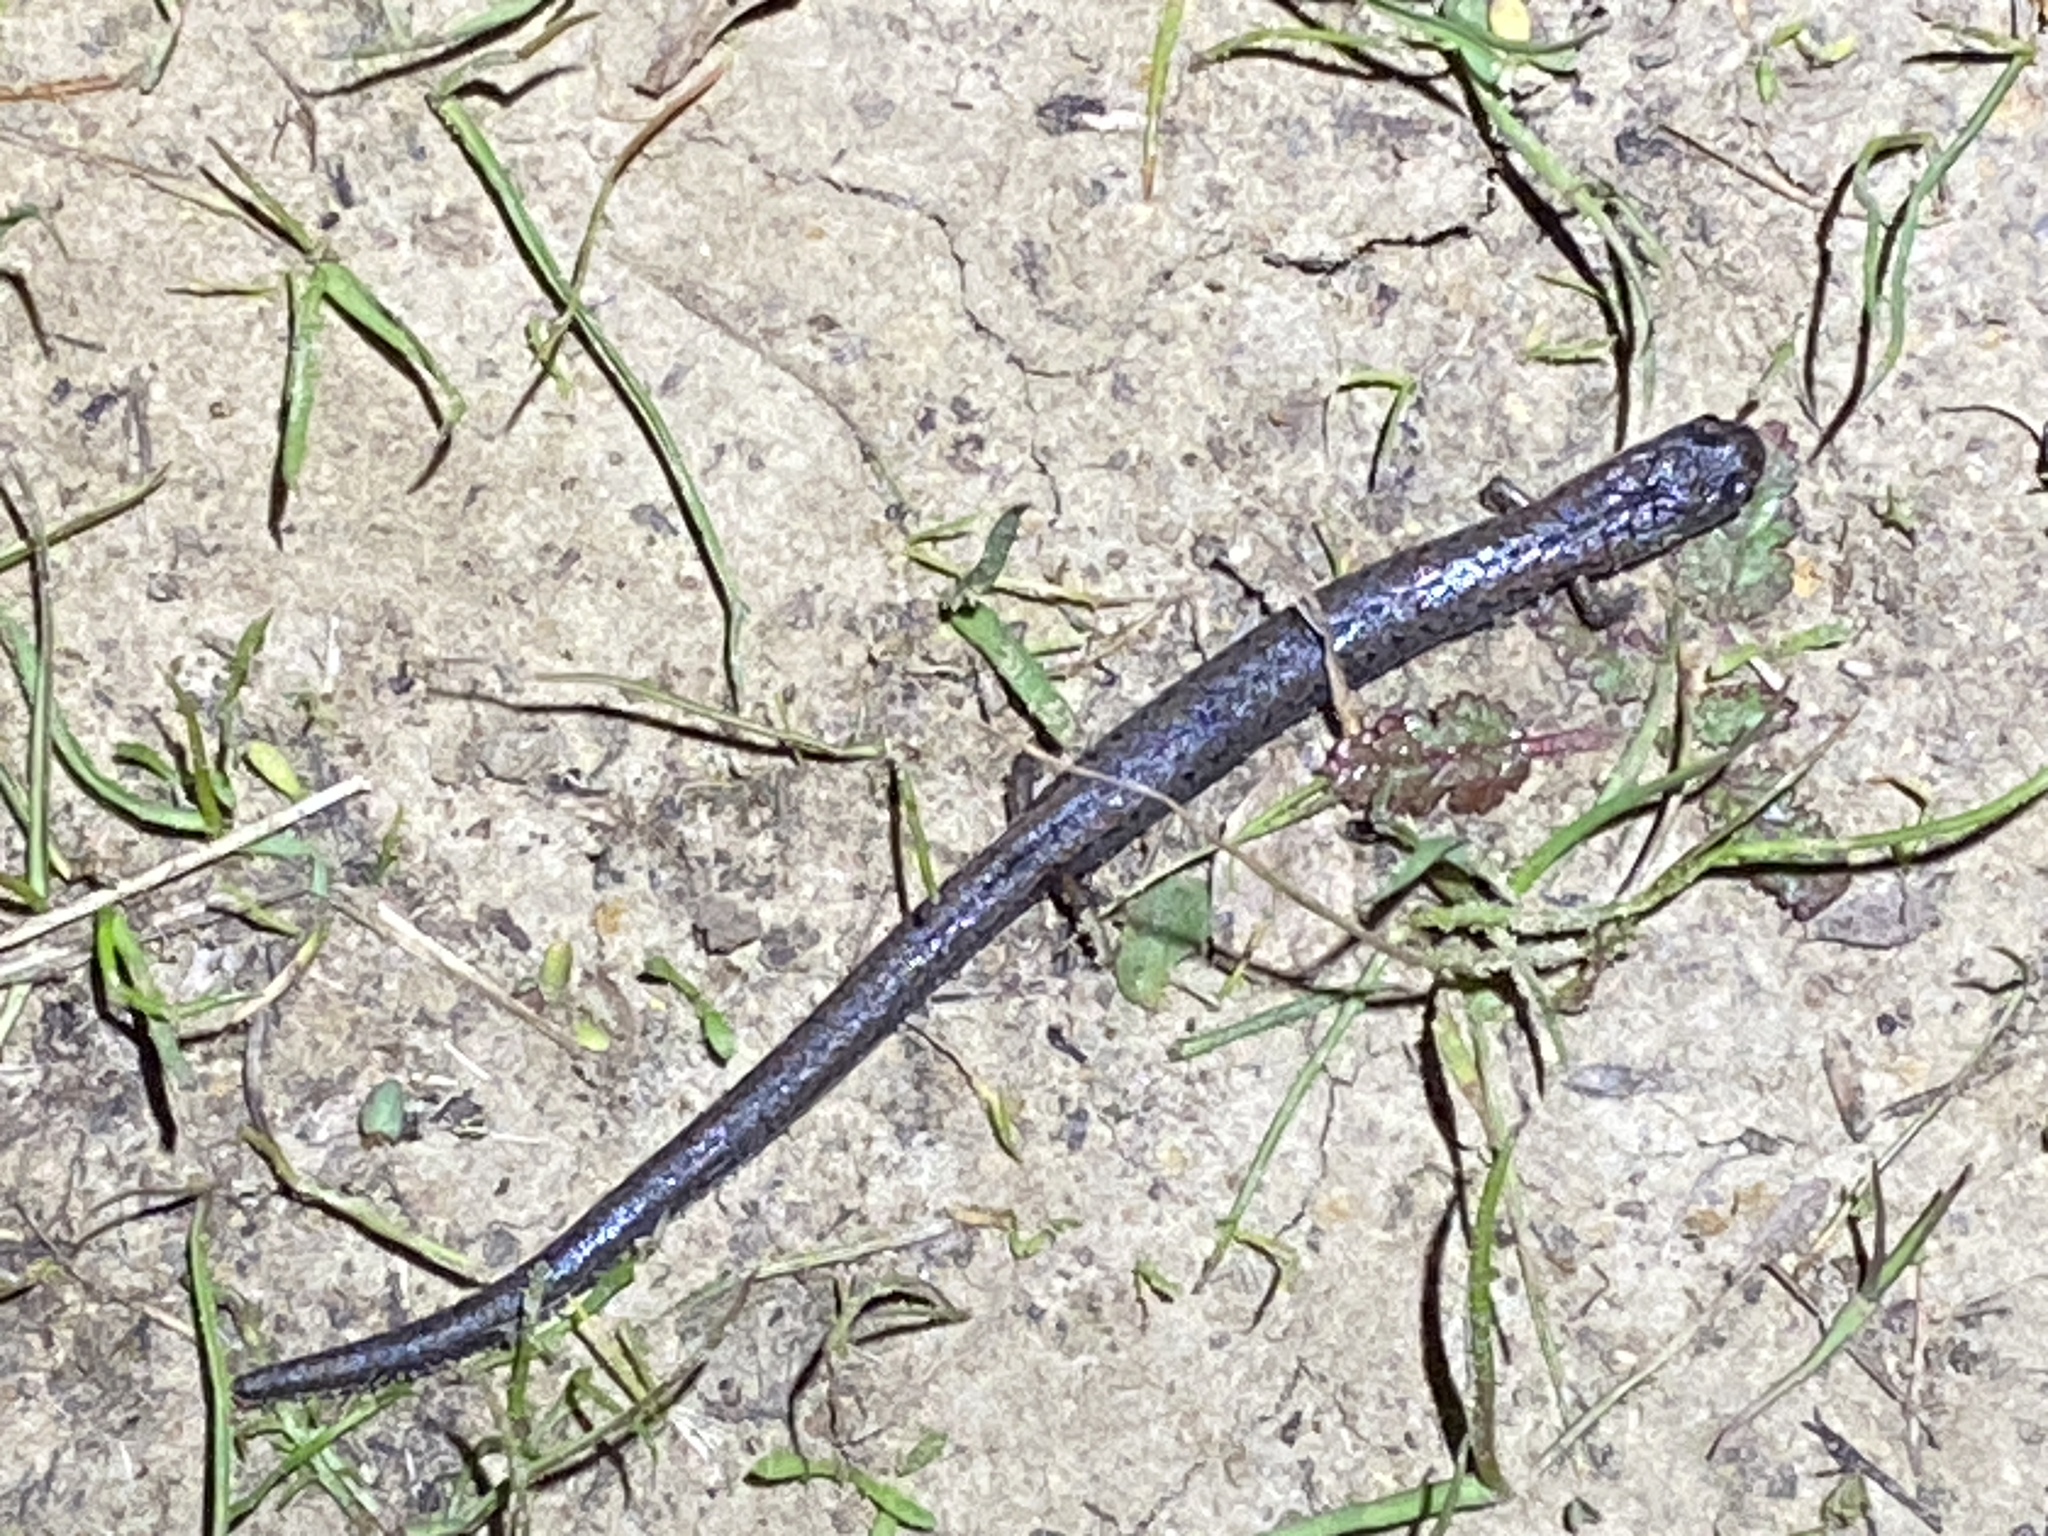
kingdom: Animalia
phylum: Chordata
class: Amphibia
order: Caudata
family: Plethodontidae
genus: Batrachoseps
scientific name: Batrachoseps attenuatus
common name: California slender salamander
